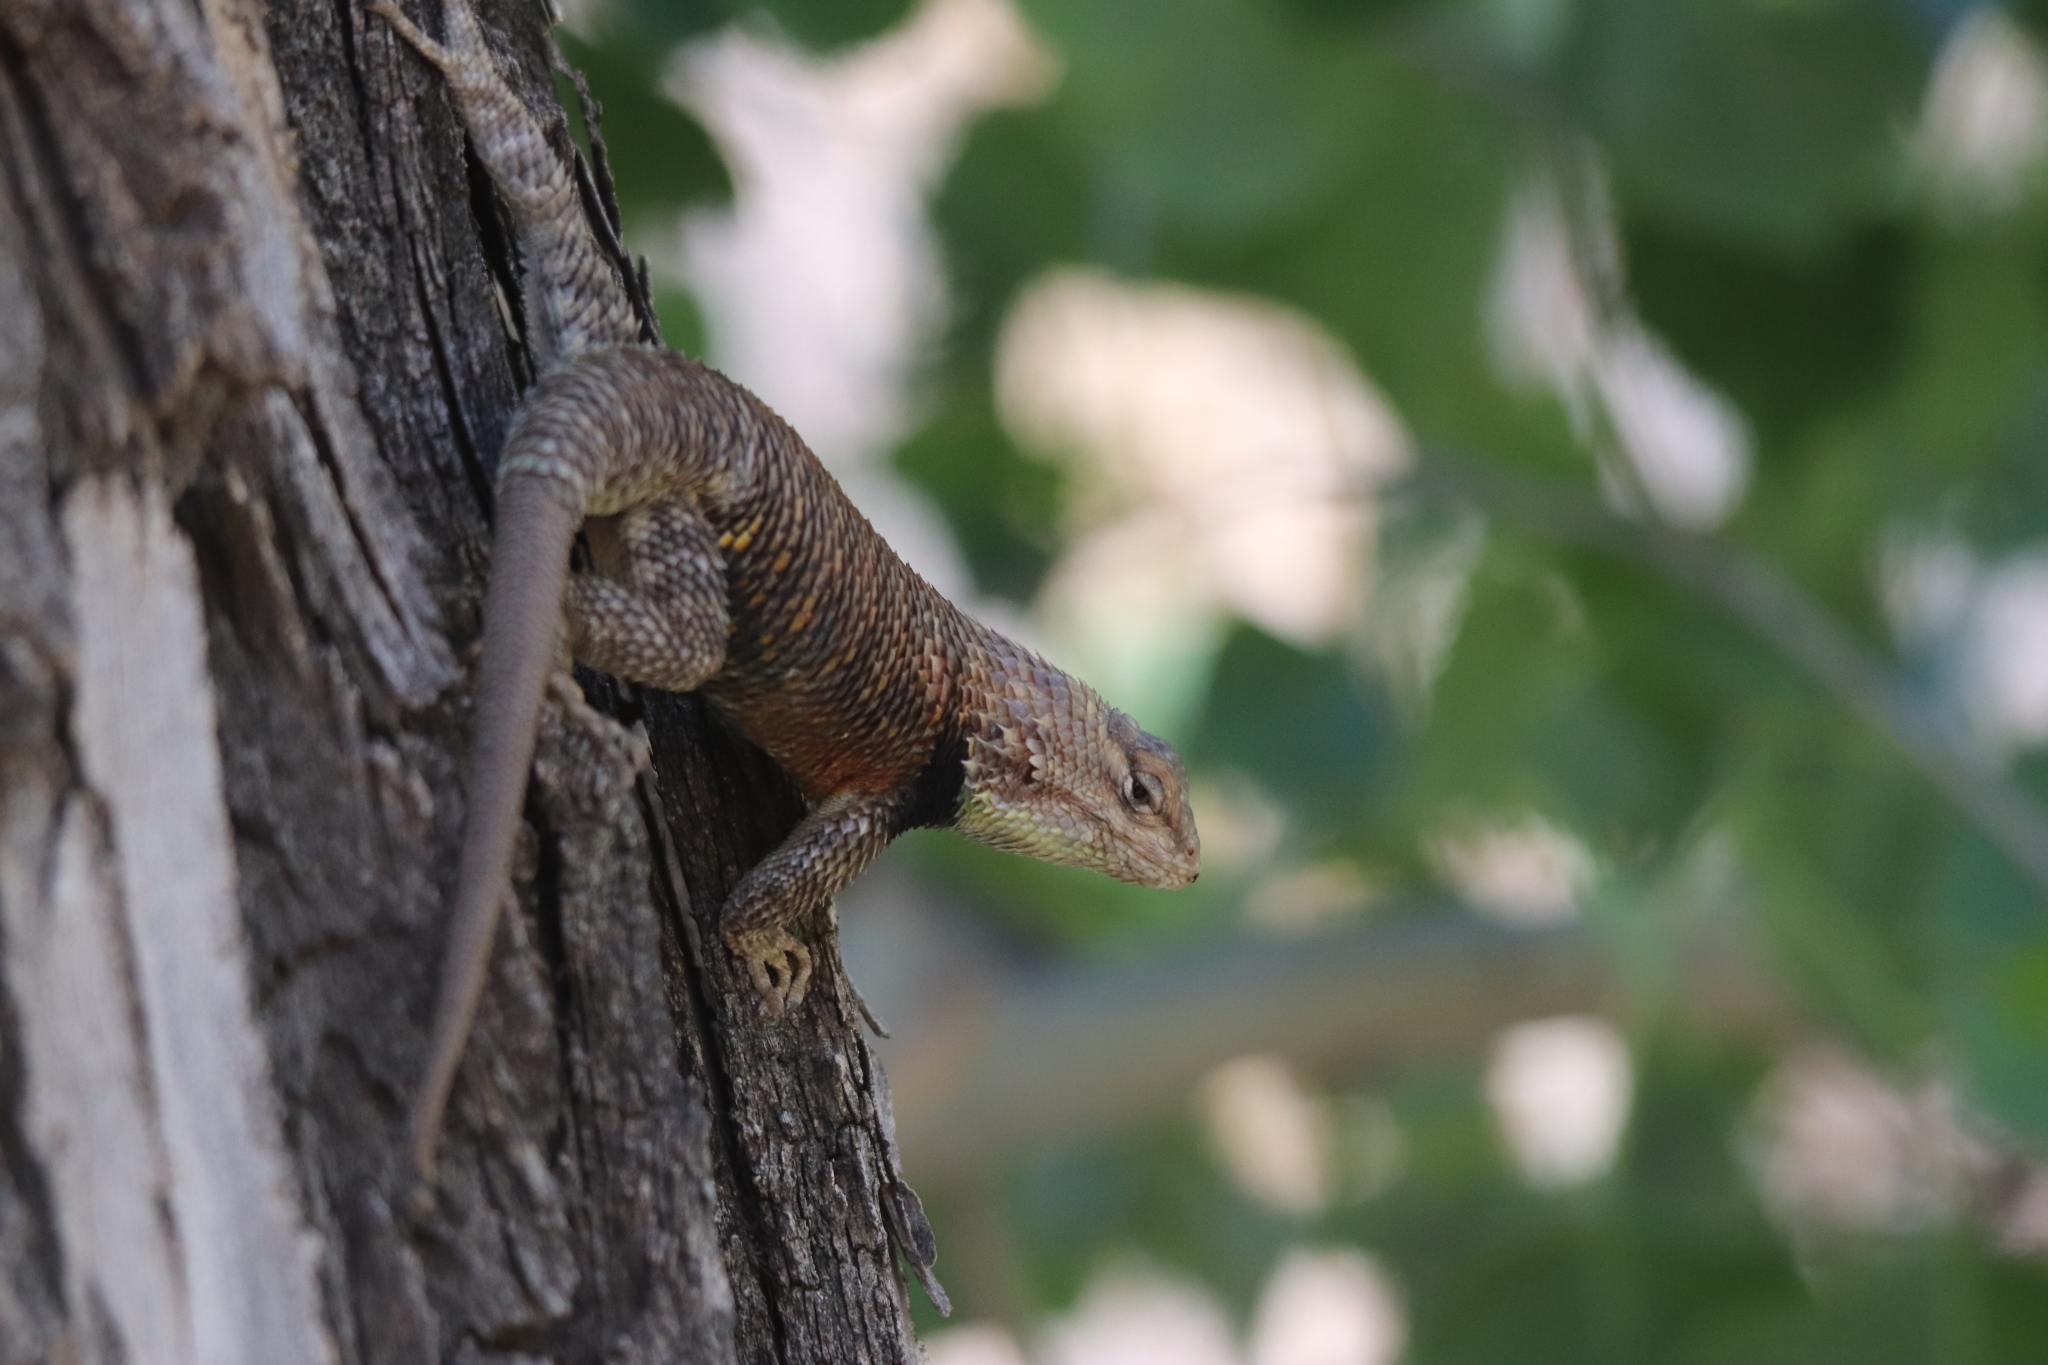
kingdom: Animalia
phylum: Chordata
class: Squamata
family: Phrynosomatidae
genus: Sceloporus
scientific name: Sceloporus magister
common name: Desert spiny lizard
